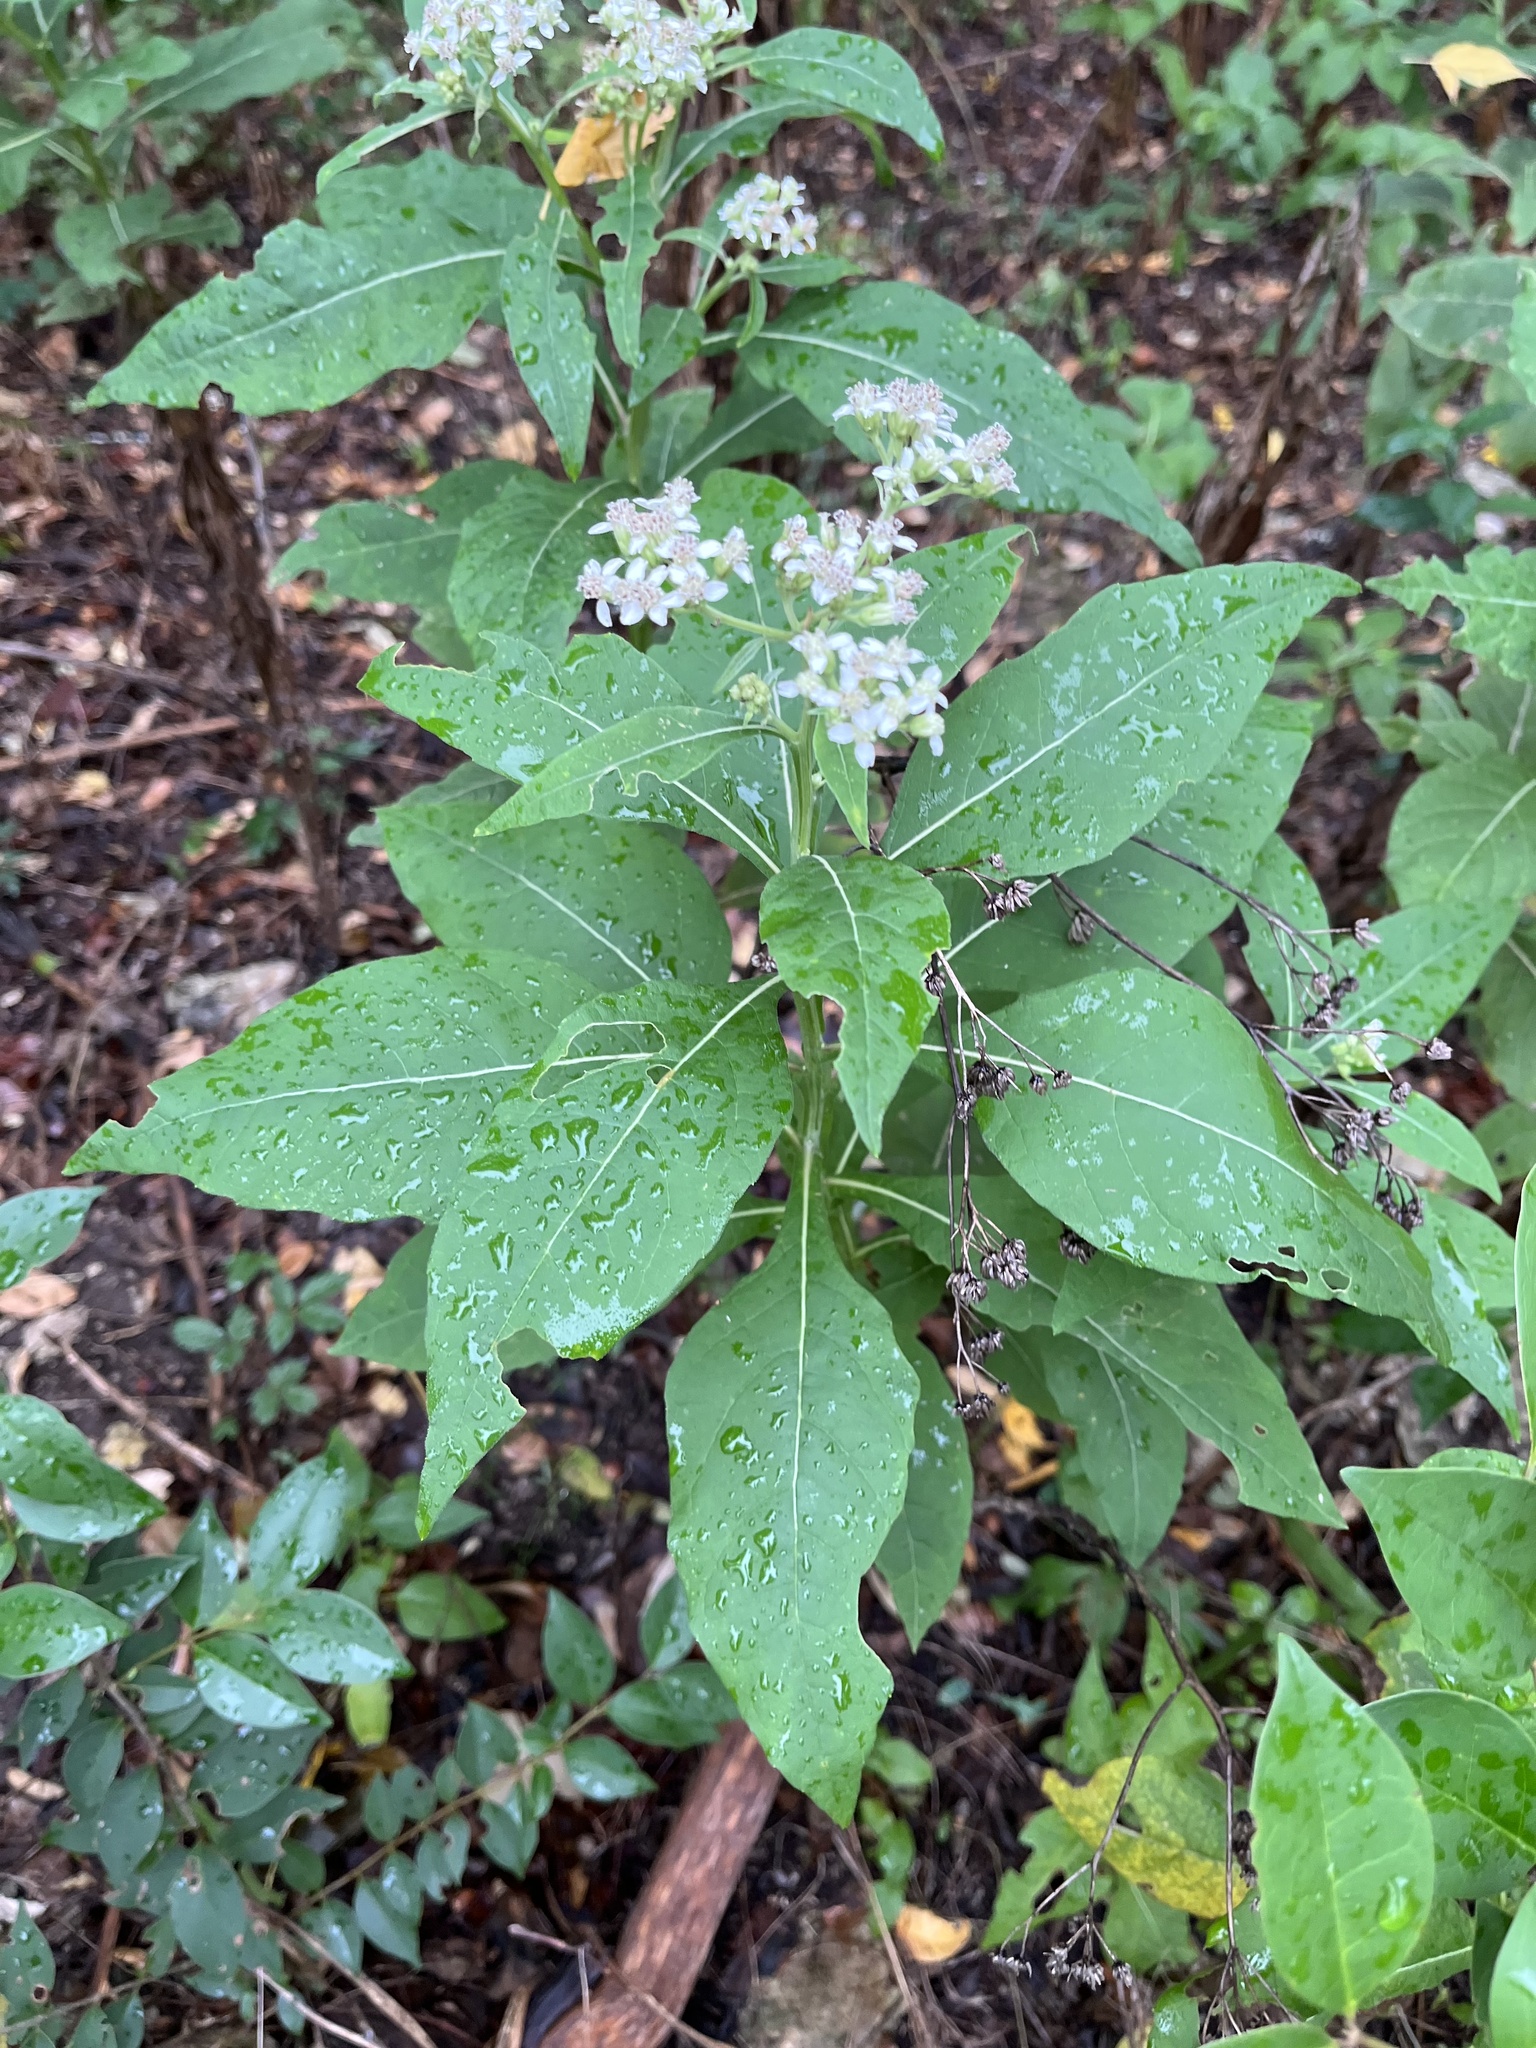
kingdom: Plantae
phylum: Tracheophyta
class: Magnoliopsida
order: Asterales
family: Asteraceae
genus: Verbesina
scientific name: Verbesina virginica
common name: Frostweed
